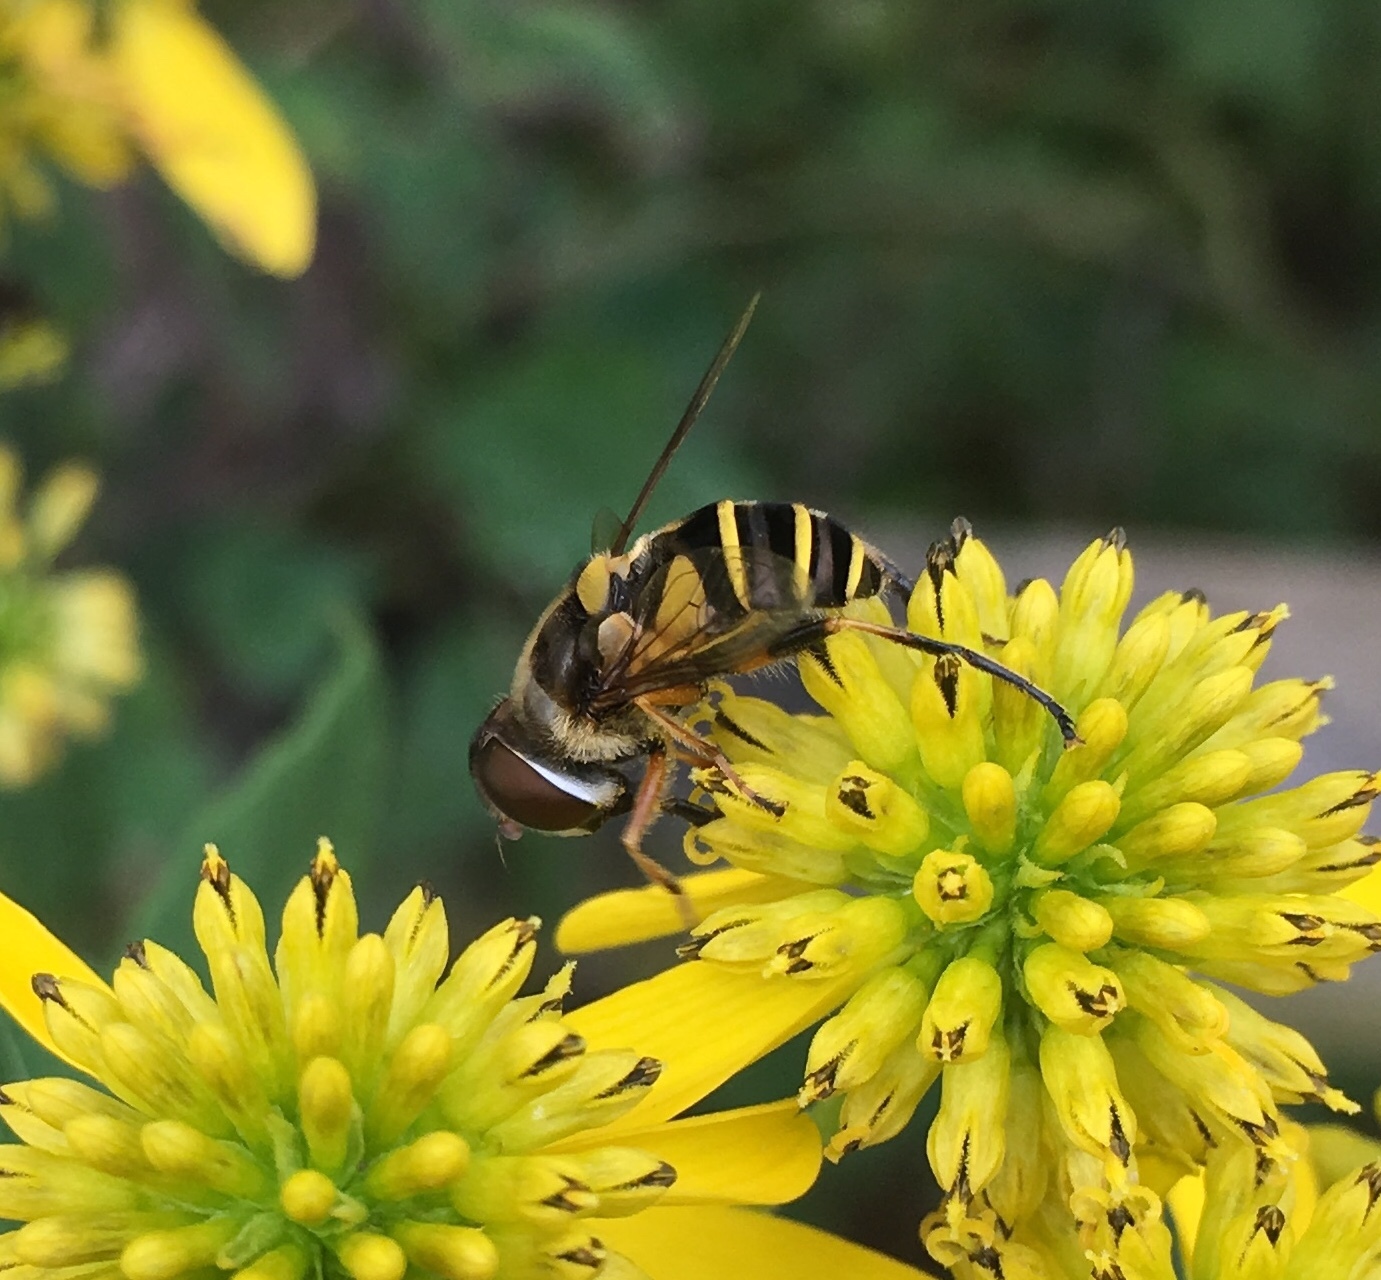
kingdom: Animalia
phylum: Arthropoda
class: Insecta
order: Diptera
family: Syrphidae
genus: Eristalis
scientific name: Eristalis transversa
